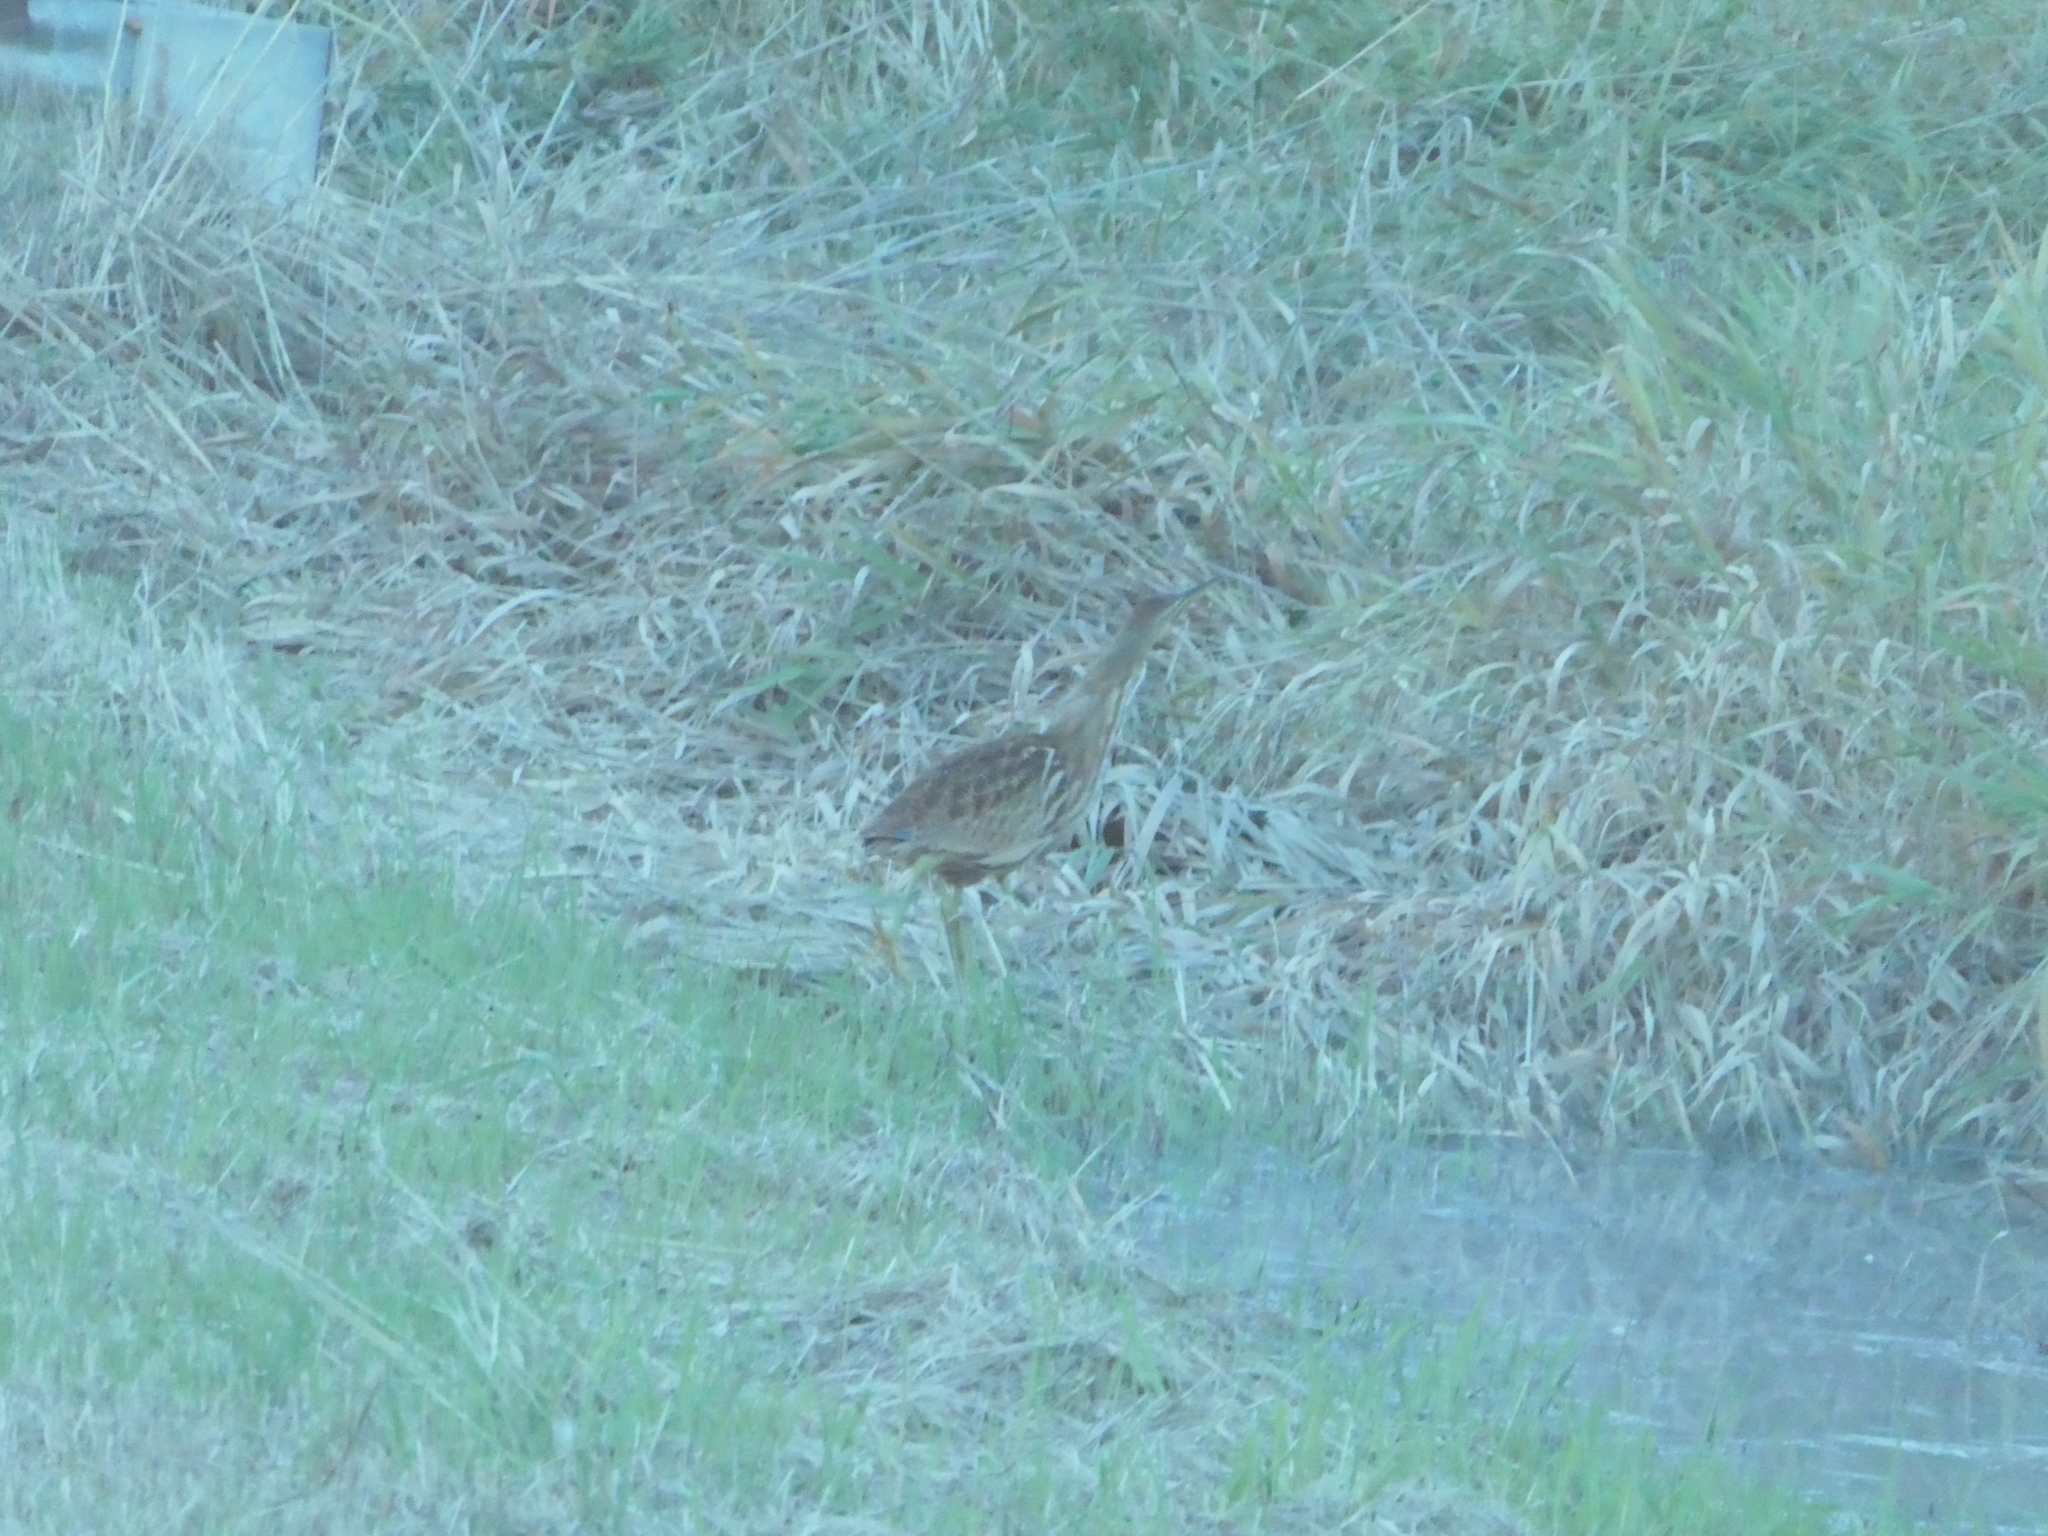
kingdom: Animalia
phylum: Chordata
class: Aves
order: Pelecaniformes
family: Ardeidae
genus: Botaurus
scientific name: Botaurus lentiginosus
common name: American bittern
